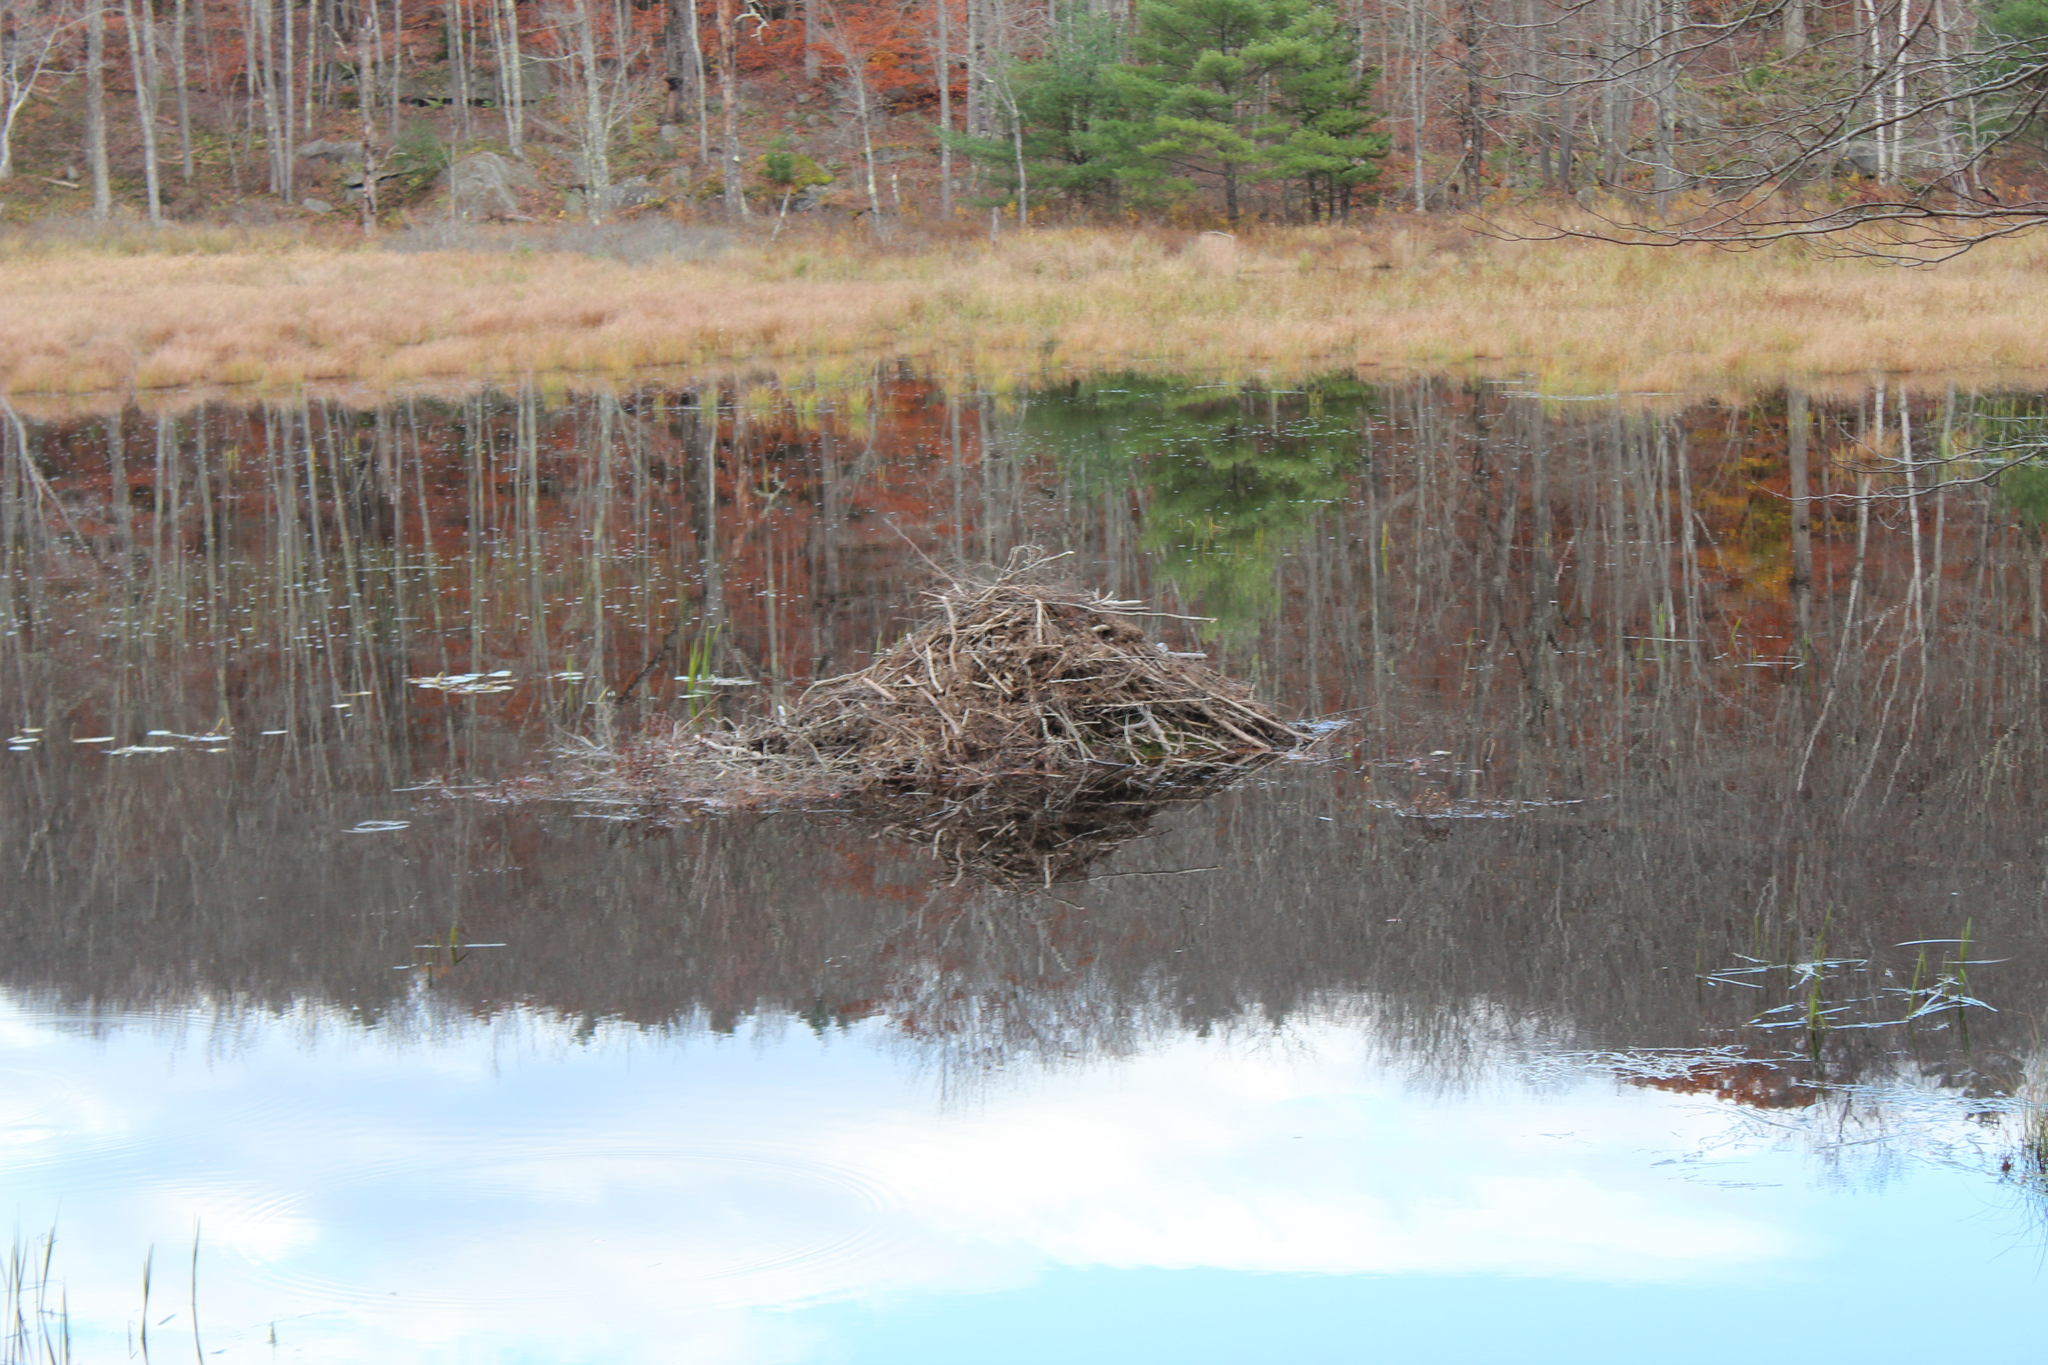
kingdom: Animalia
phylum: Chordata
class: Mammalia
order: Rodentia
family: Castoridae
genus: Castor
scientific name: Castor canadensis
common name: American beaver
